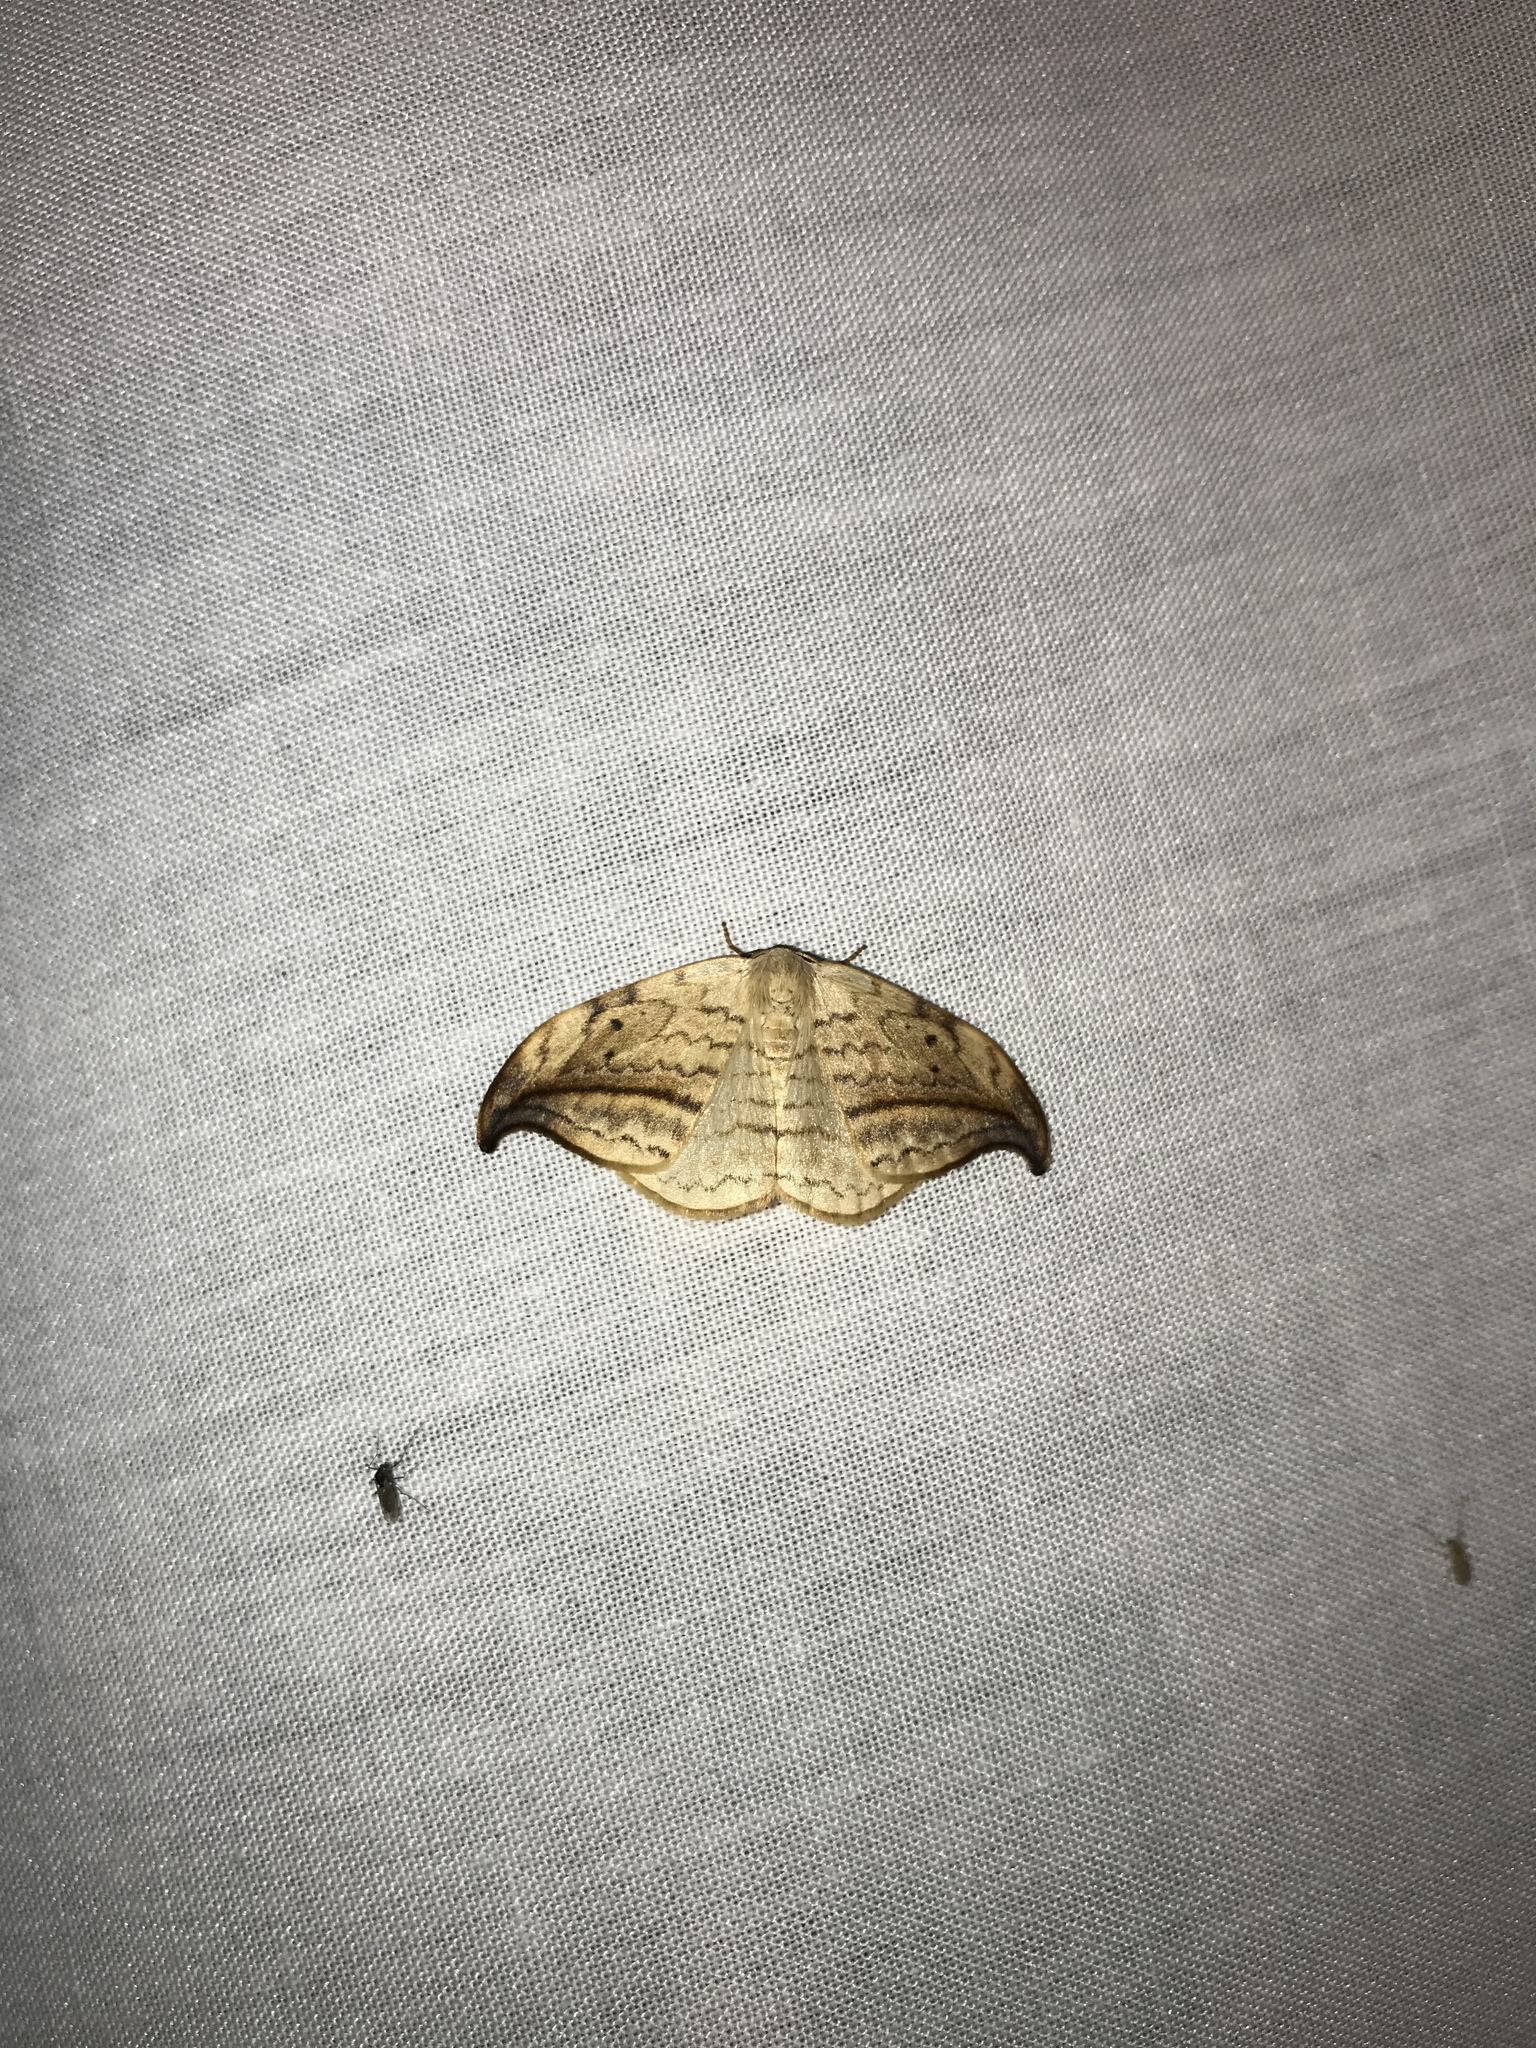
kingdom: Animalia
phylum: Arthropoda
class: Insecta
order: Lepidoptera
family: Drepanidae
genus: Drepana
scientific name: Drepana arcuata
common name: Arched hooktip moth
